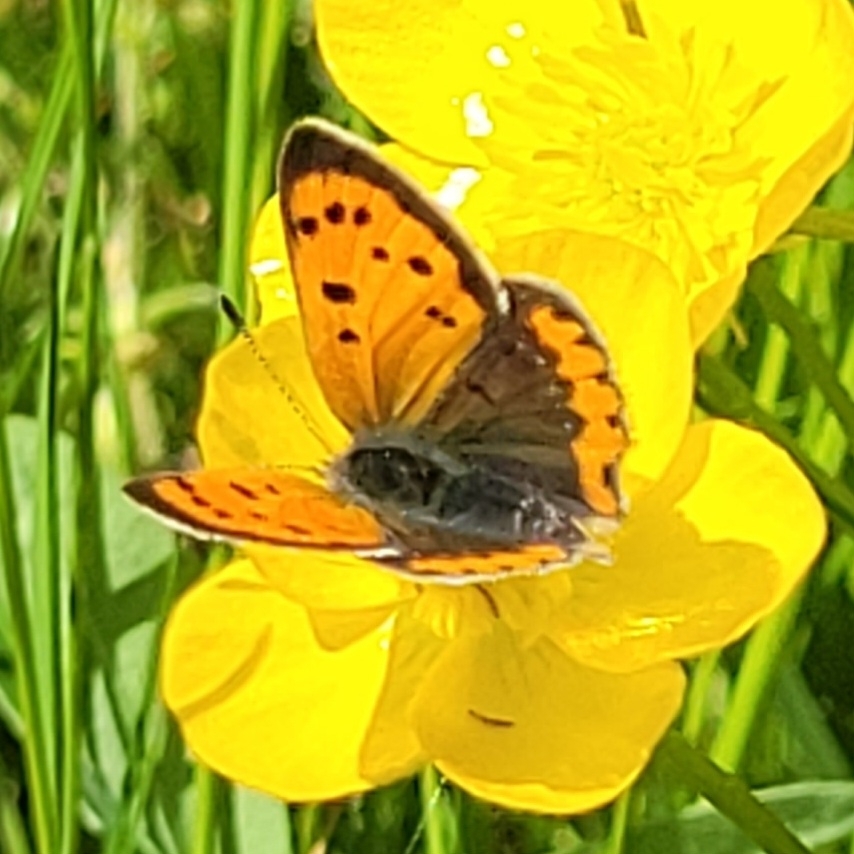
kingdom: Animalia
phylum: Arthropoda
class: Insecta
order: Lepidoptera
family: Lycaenidae
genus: Lycaena
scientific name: Lycaena phlaeas
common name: Small copper
